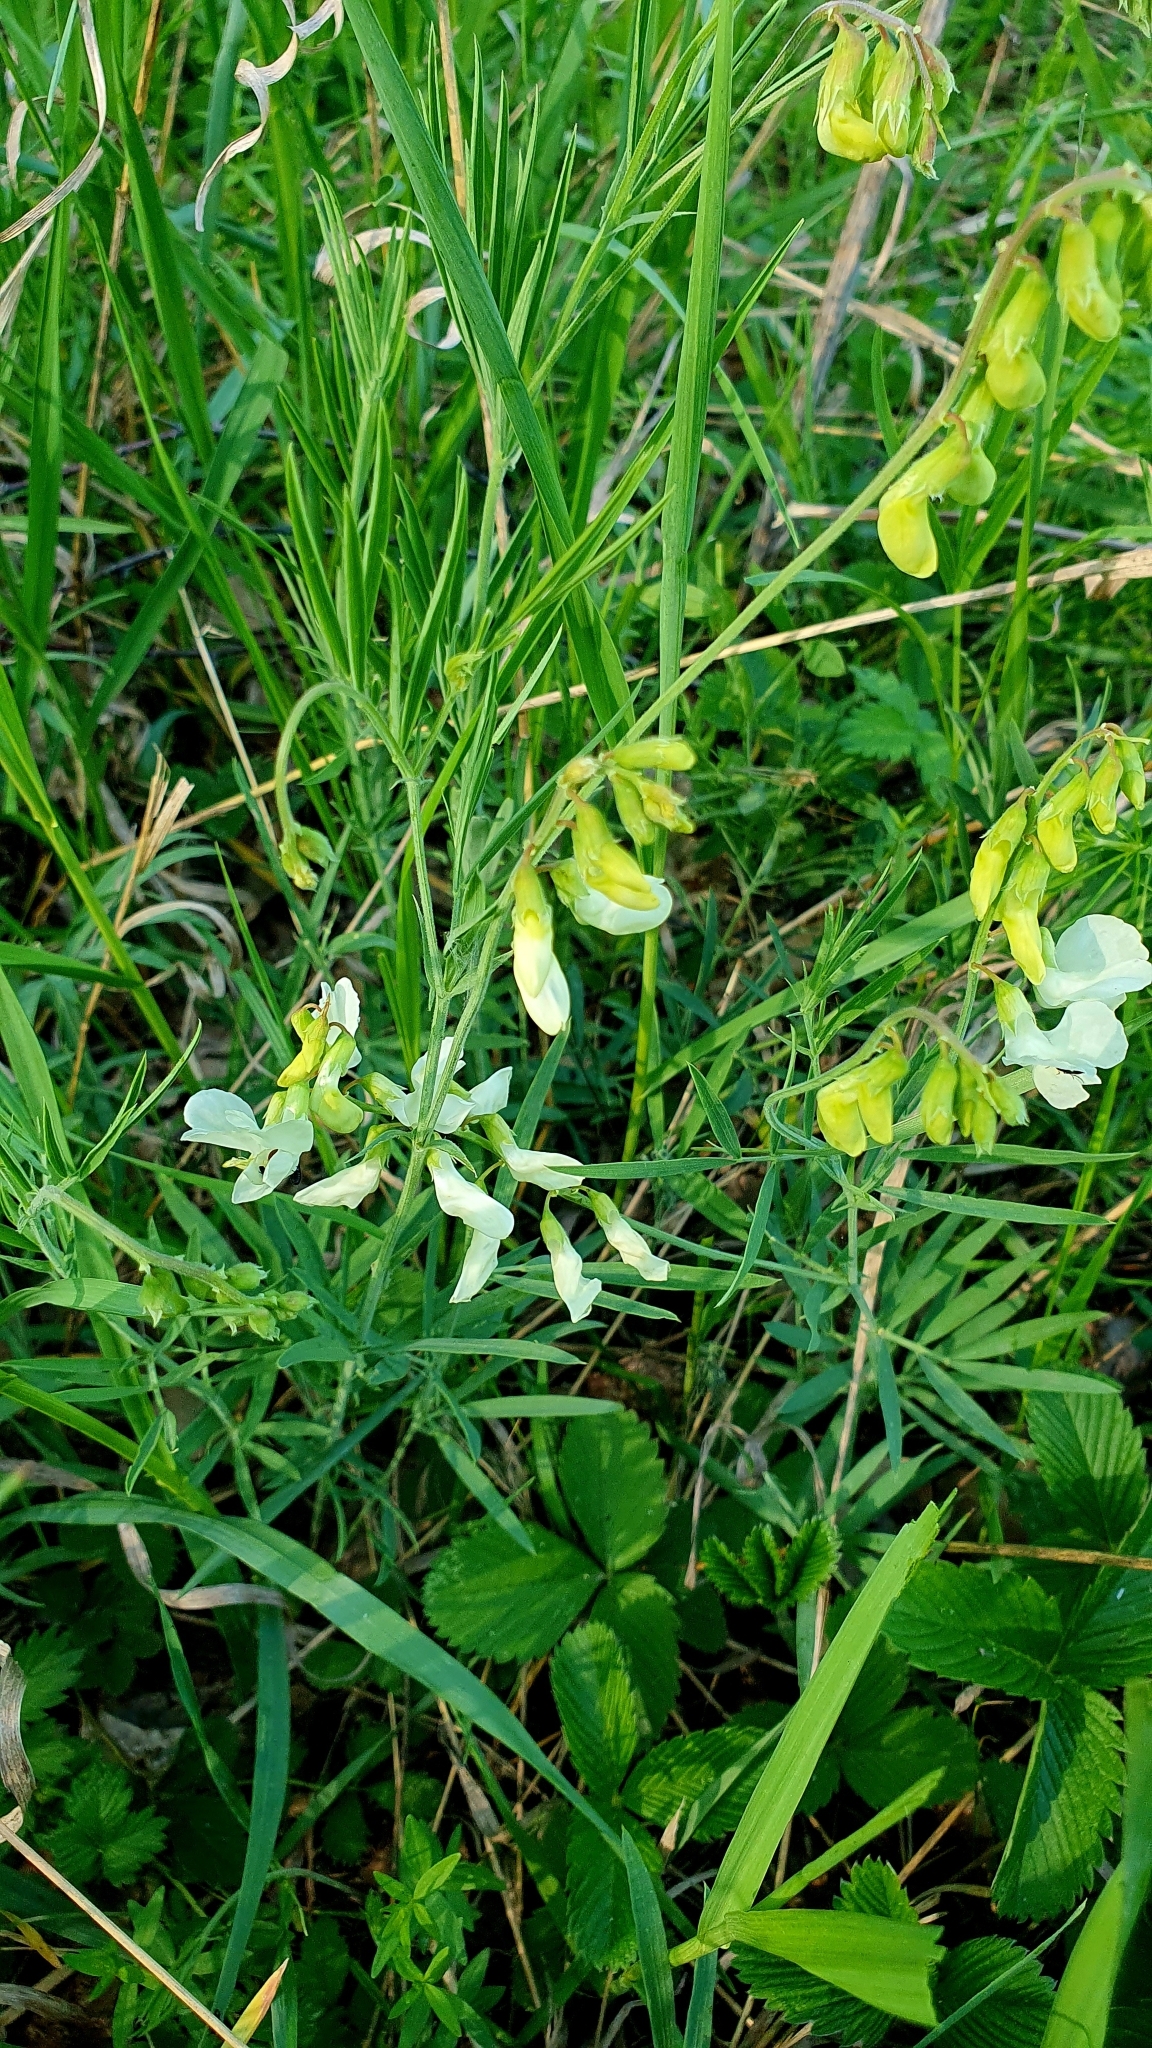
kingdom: Plantae
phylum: Tracheophyta
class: Magnoliopsida
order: Fabales
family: Fabaceae
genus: Lathyrus
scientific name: Lathyrus pallescens
